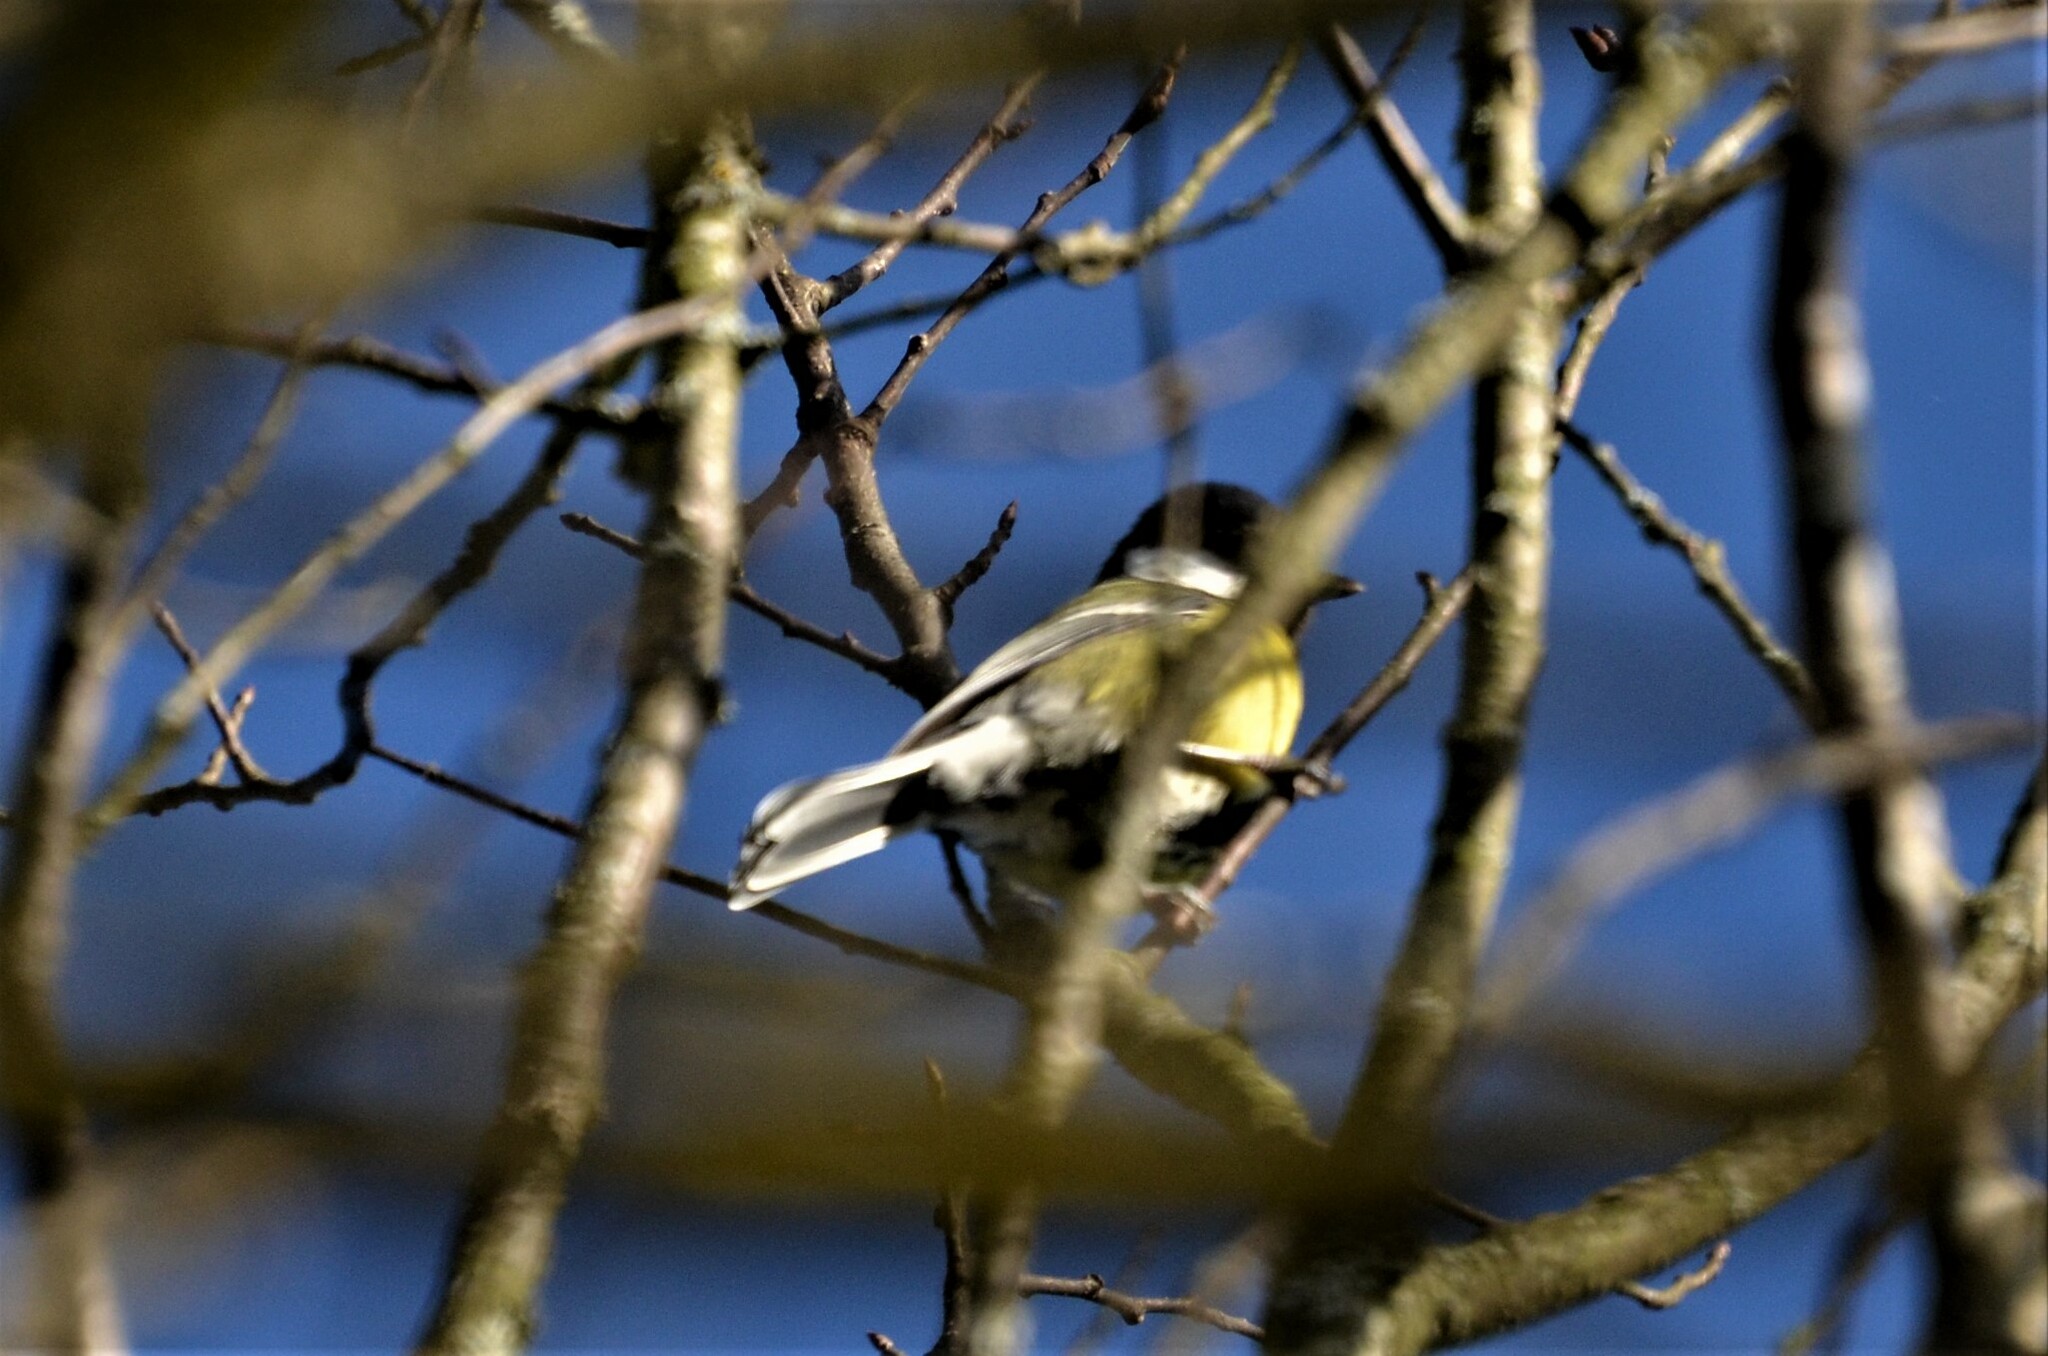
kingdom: Animalia
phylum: Chordata
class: Aves
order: Passeriformes
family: Paridae
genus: Parus
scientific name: Parus major
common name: Great tit
